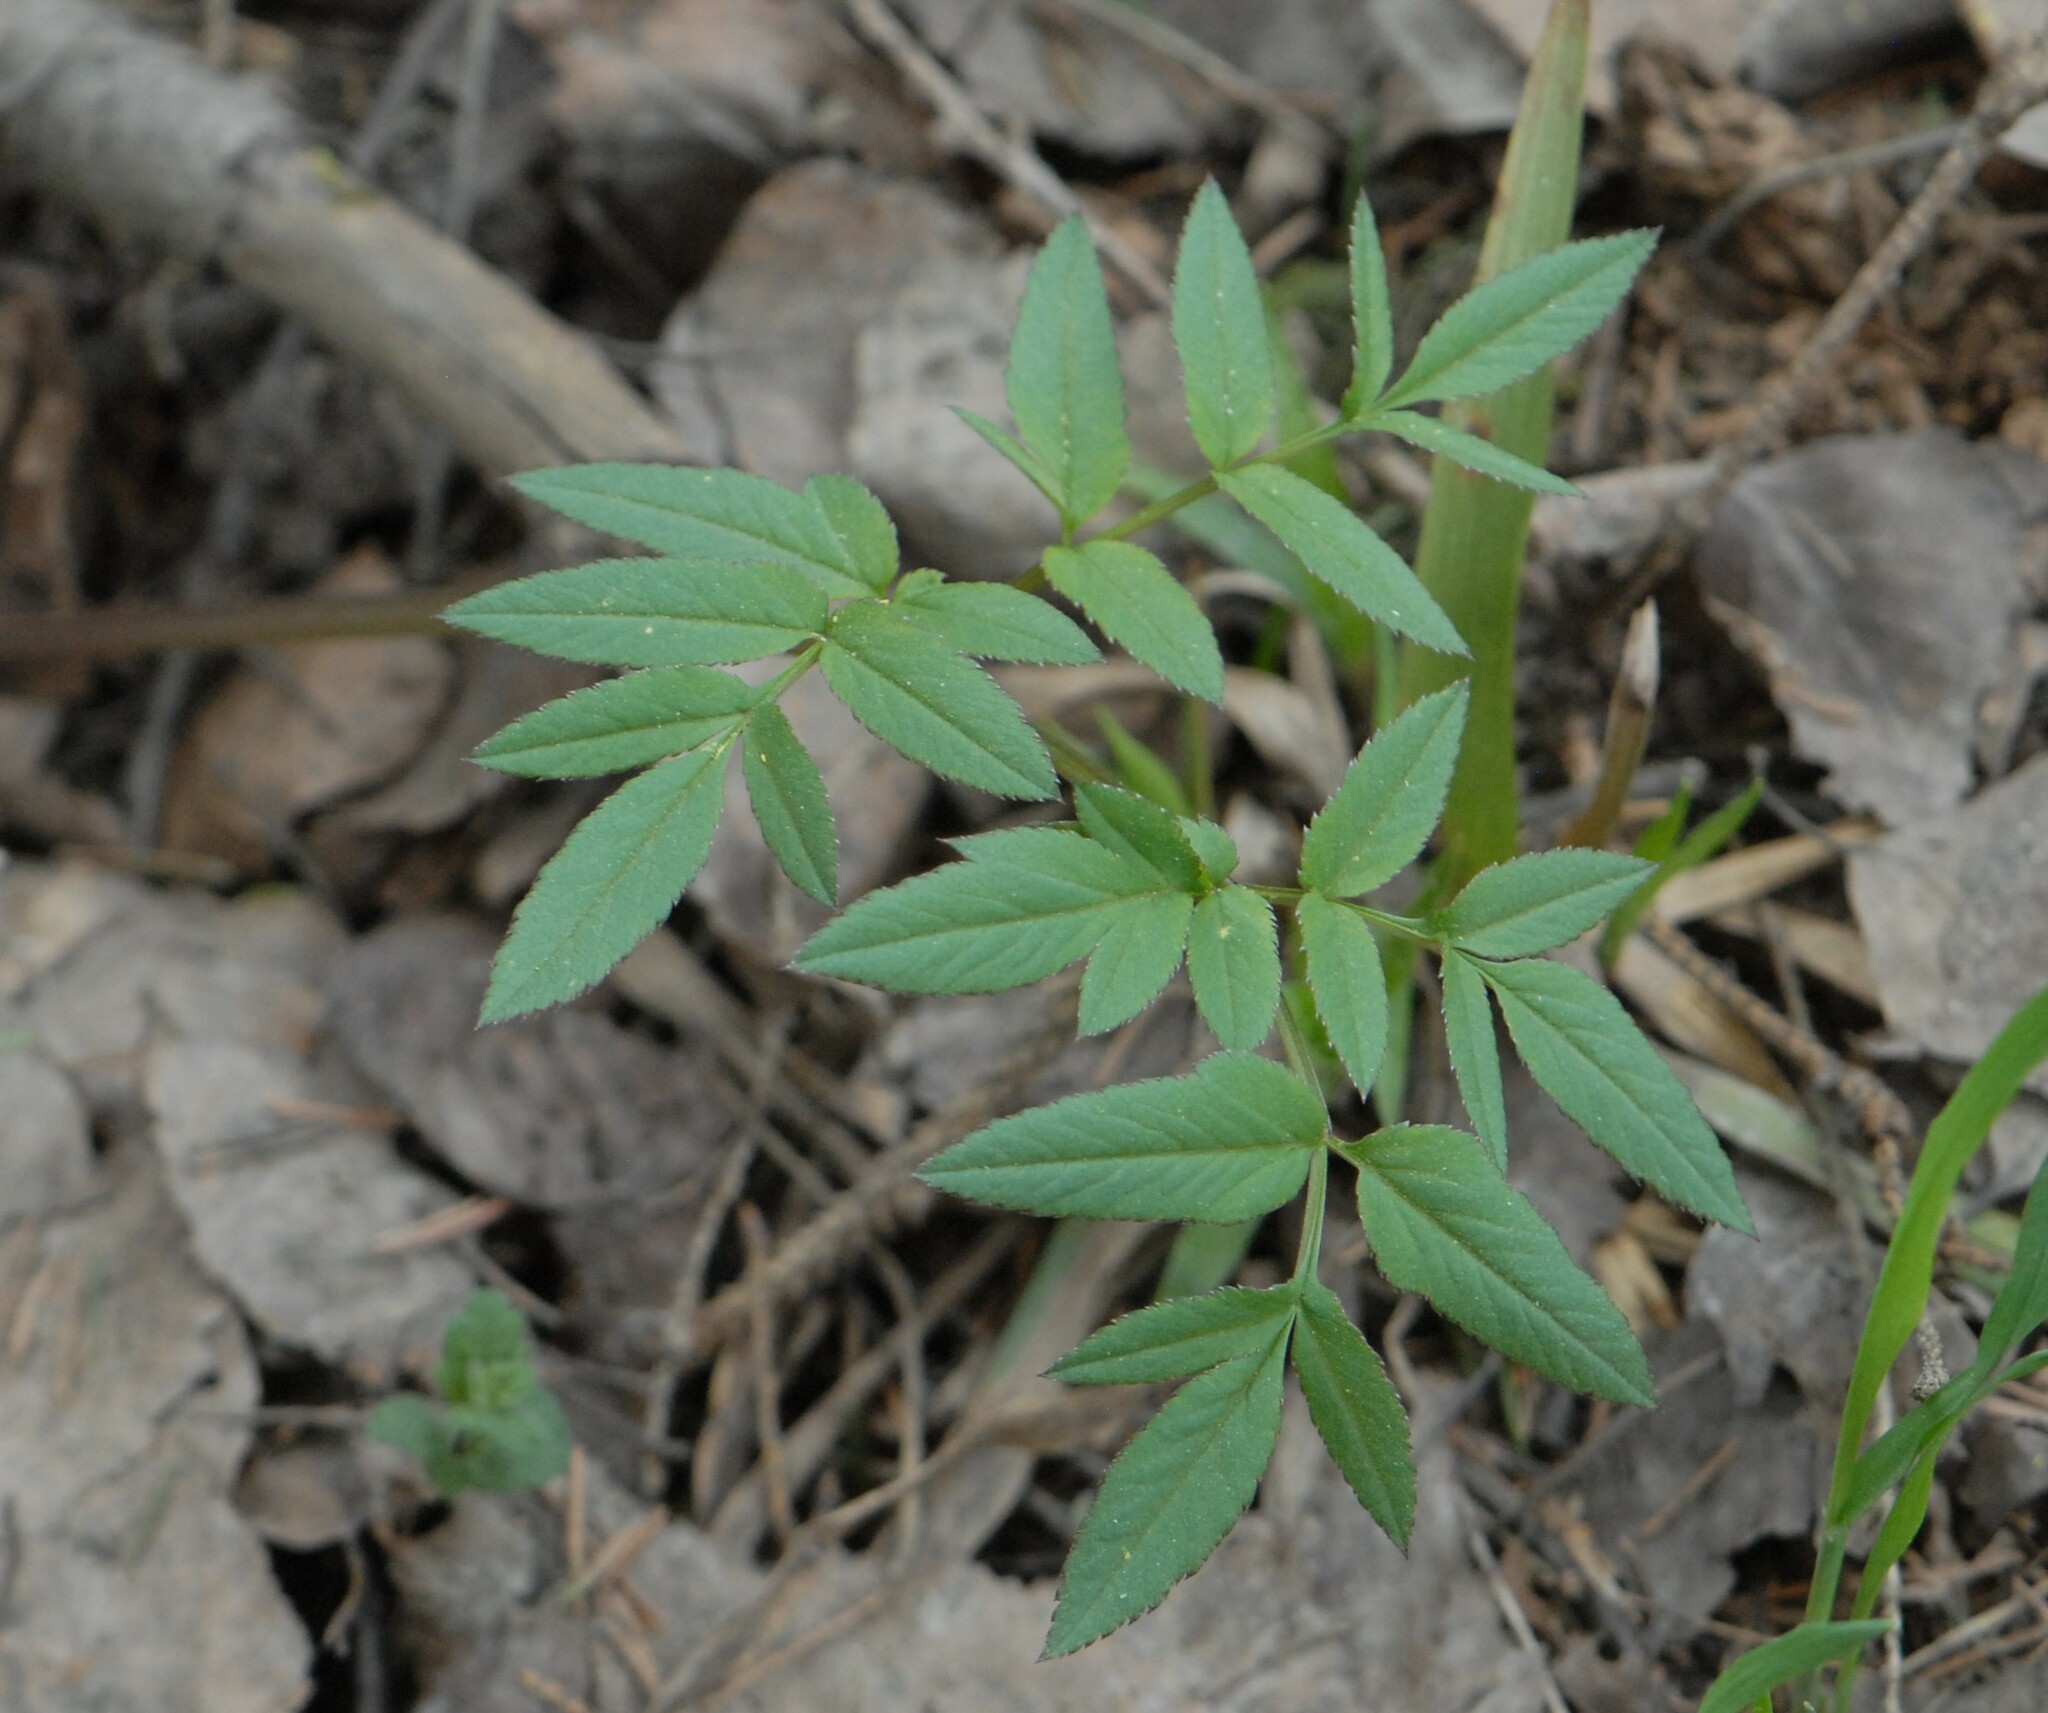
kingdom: Plantae
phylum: Tracheophyta
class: Magnoliopsida
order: Apiales
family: Apiaceae
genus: Angelica
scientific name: Angelica sylvestris
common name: Wild angelica
